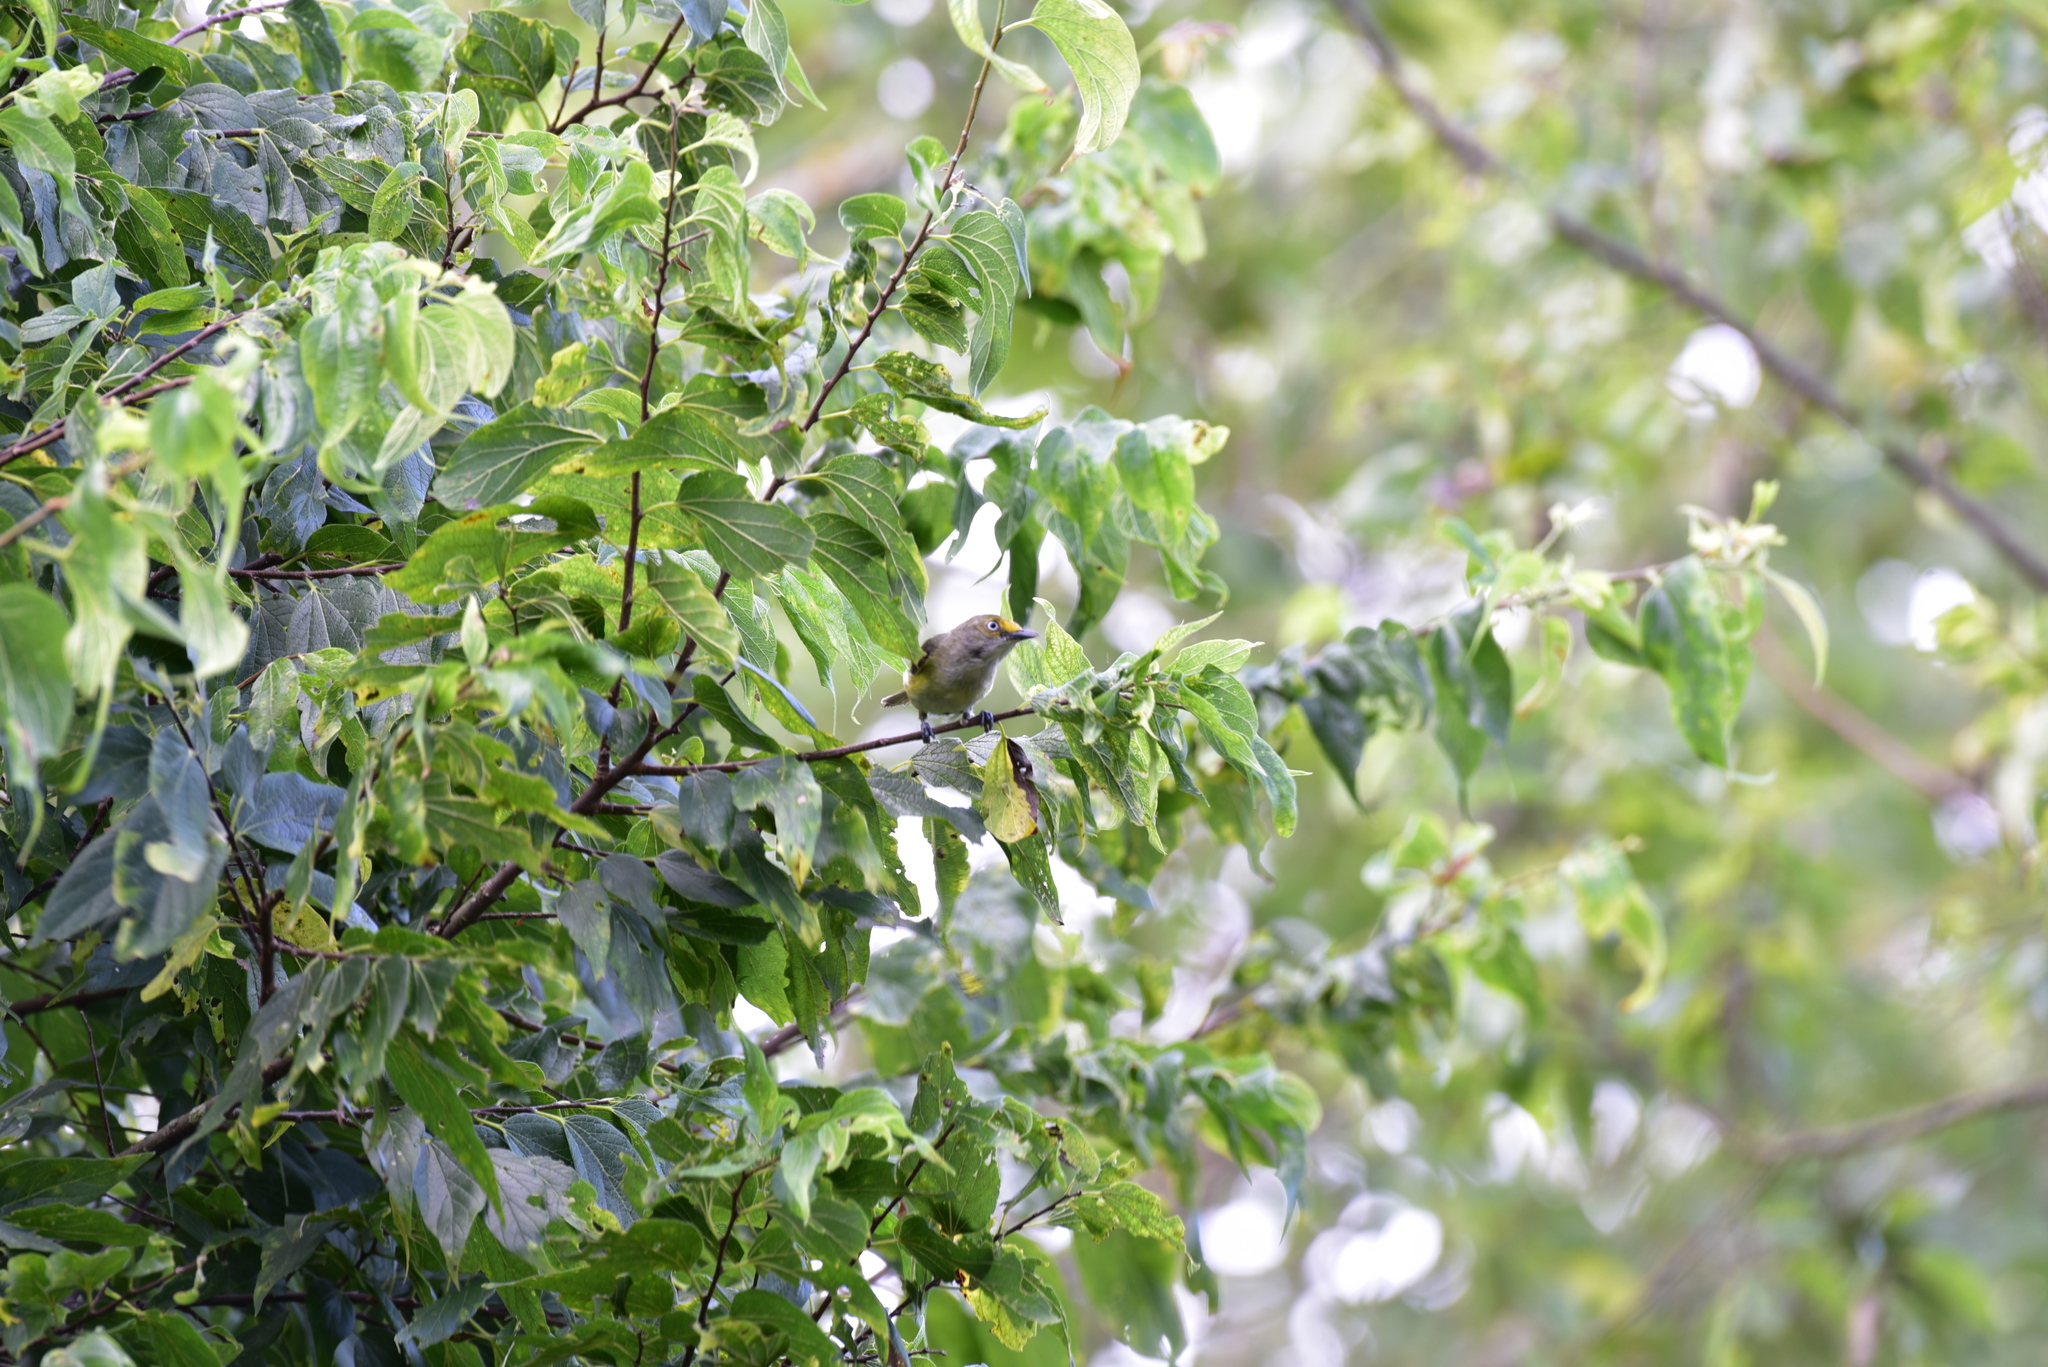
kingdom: Animalia
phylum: Chordata
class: Aves
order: Passeriformes
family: Vireonidae
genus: Vireo
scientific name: Vireo griseus
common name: White-eyed vireo
